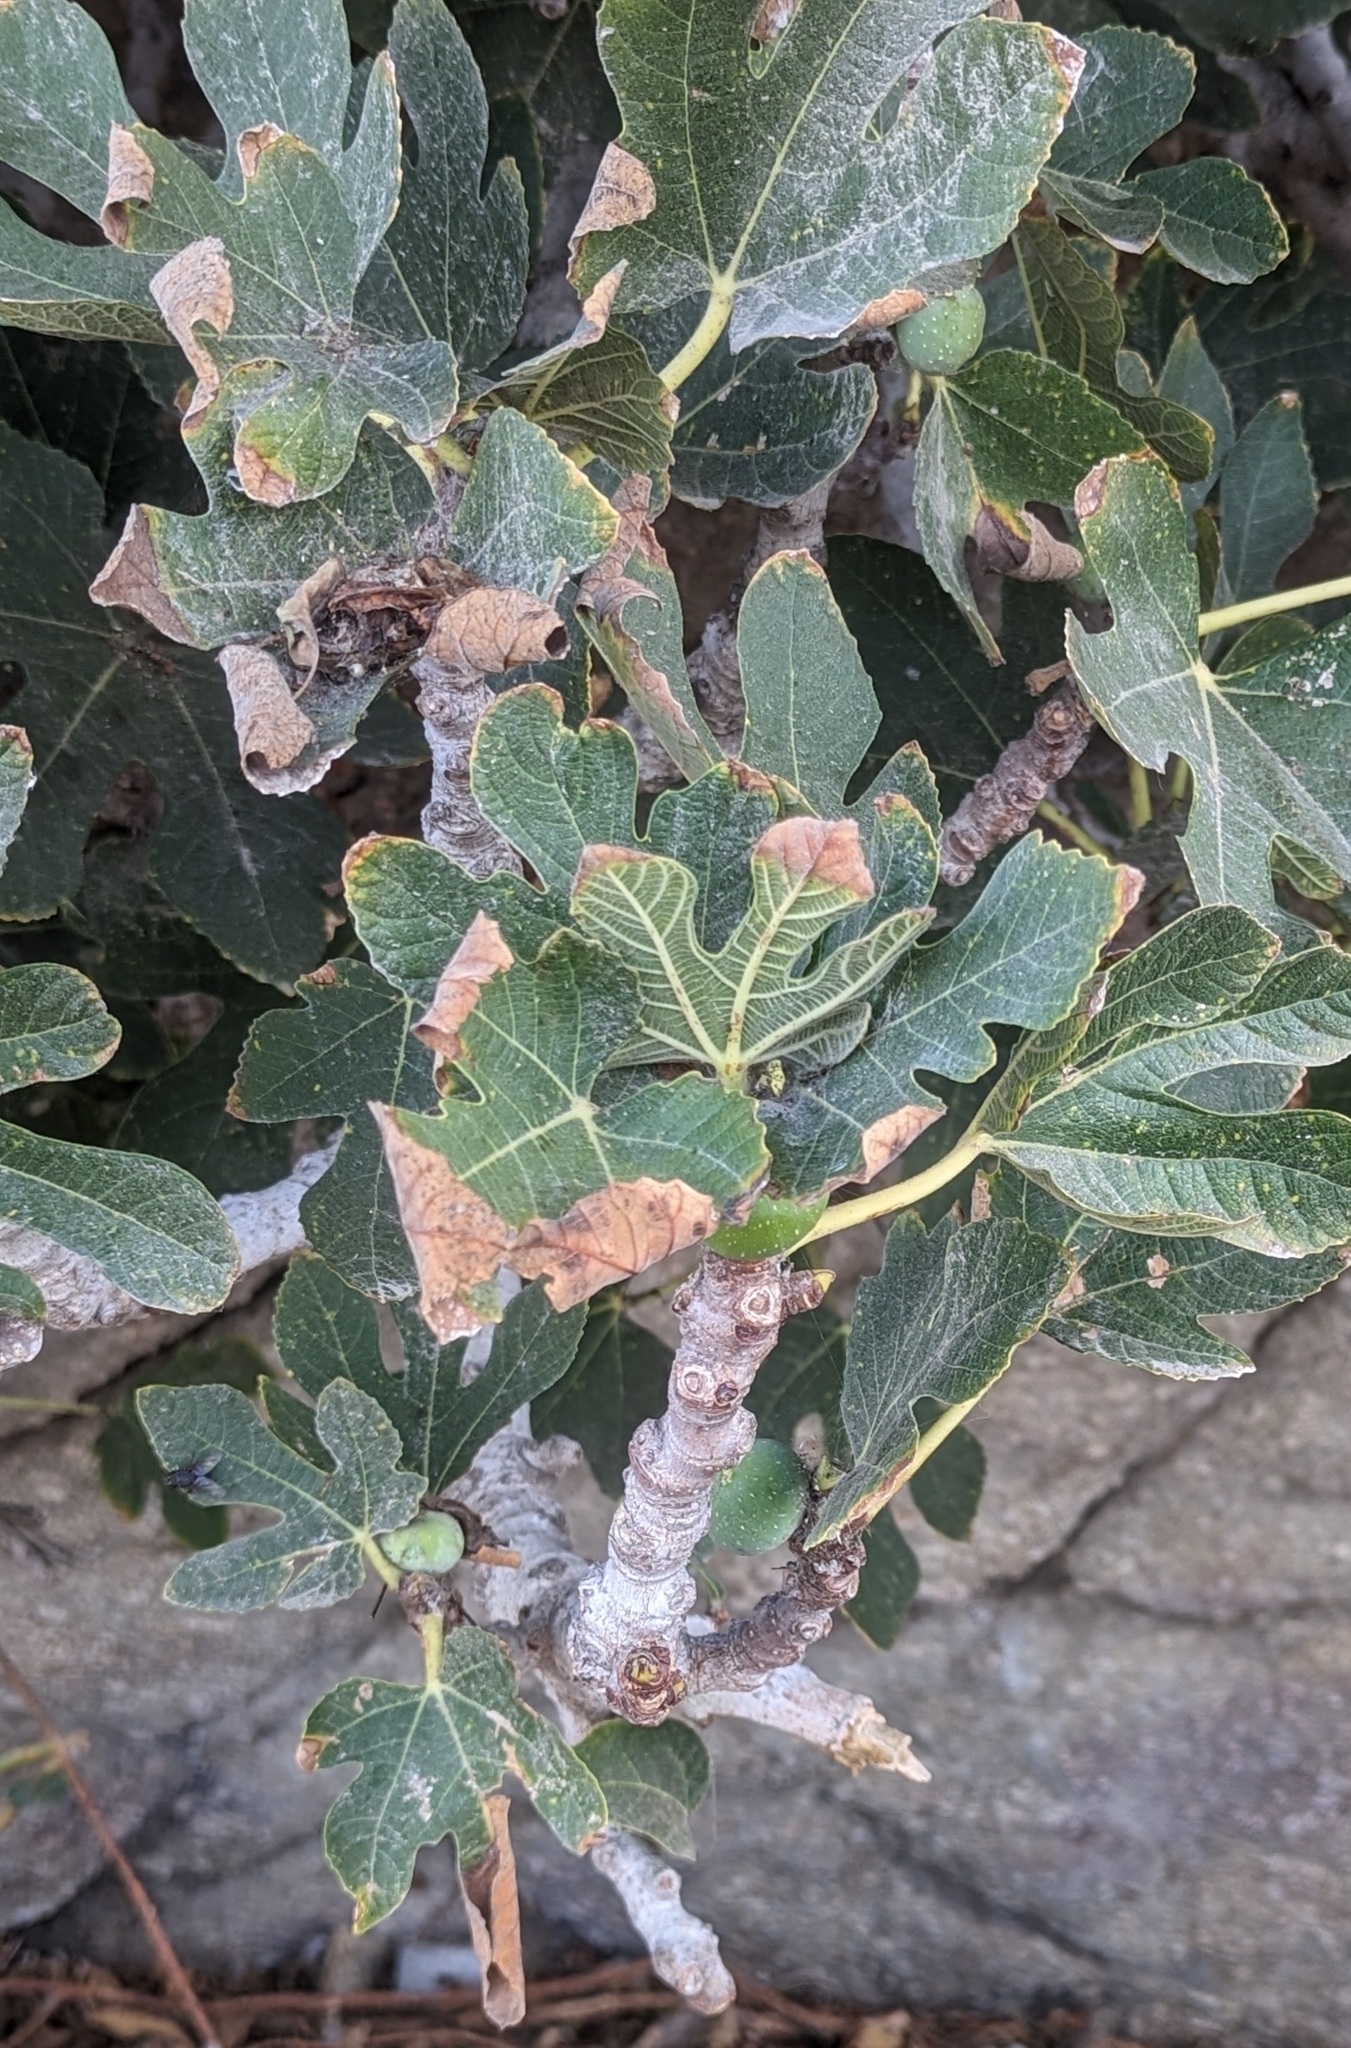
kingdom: Plantae
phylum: Tracheophyta
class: Magnoliopsida
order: Rosales
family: Moraceae
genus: Ficus
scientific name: Ficus carica
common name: Fig
